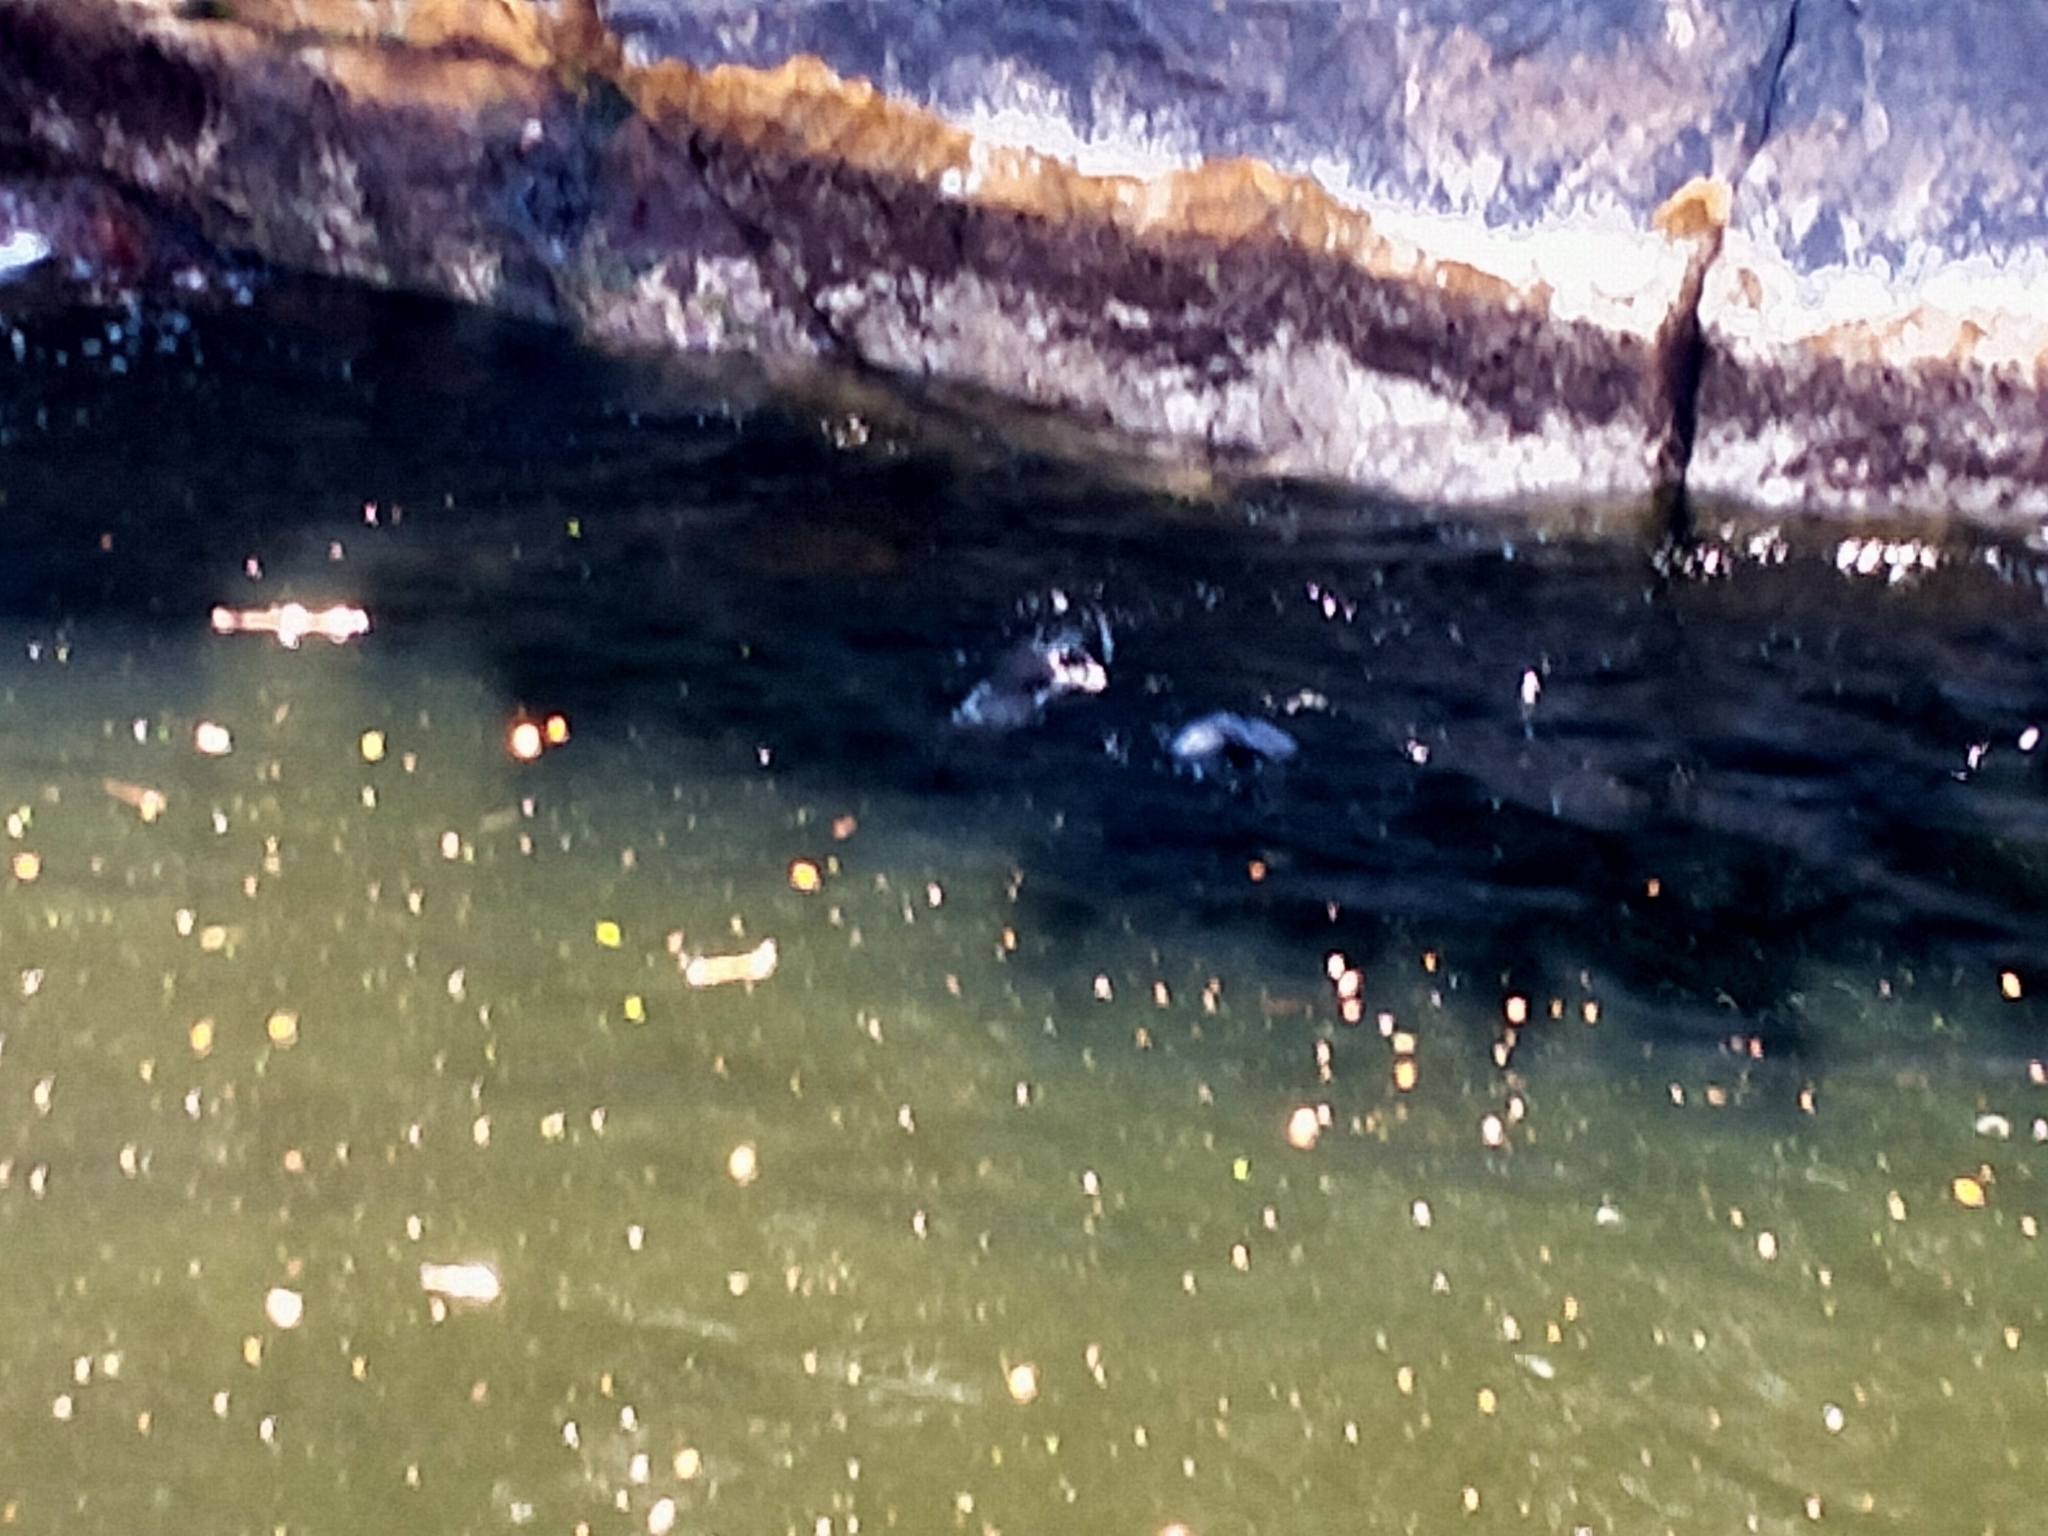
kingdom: Animalia
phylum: Chordata
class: Mammalia
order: Carnivora
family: Otariidae
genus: Arctocephalus
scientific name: Arctocephalus forsteri
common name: New zealand fur seal
